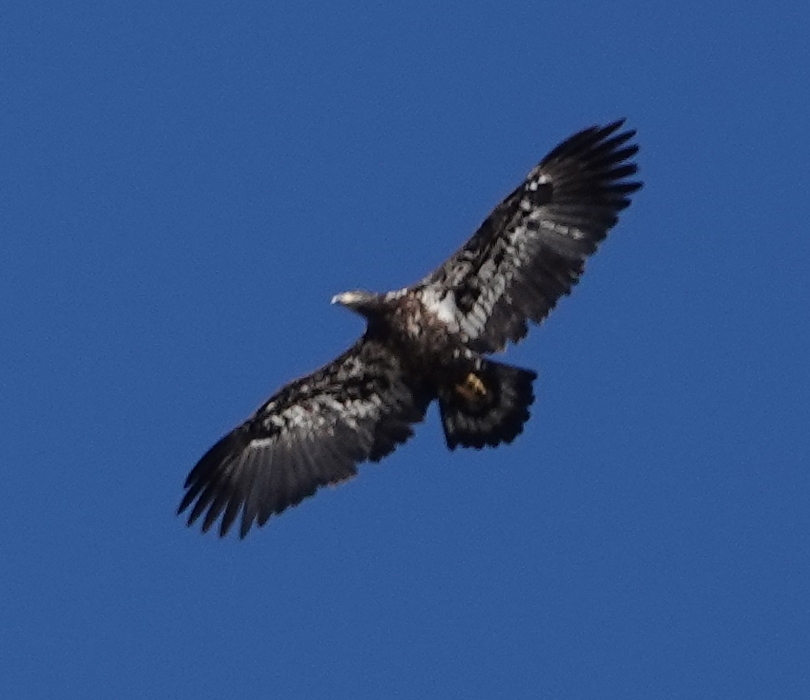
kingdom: Animalia
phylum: Chordata
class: Aves
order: Accipitriformes
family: Accipitridae
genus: Haliaeetus
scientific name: Haliaeetus leucocephalus
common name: Bald eagle
